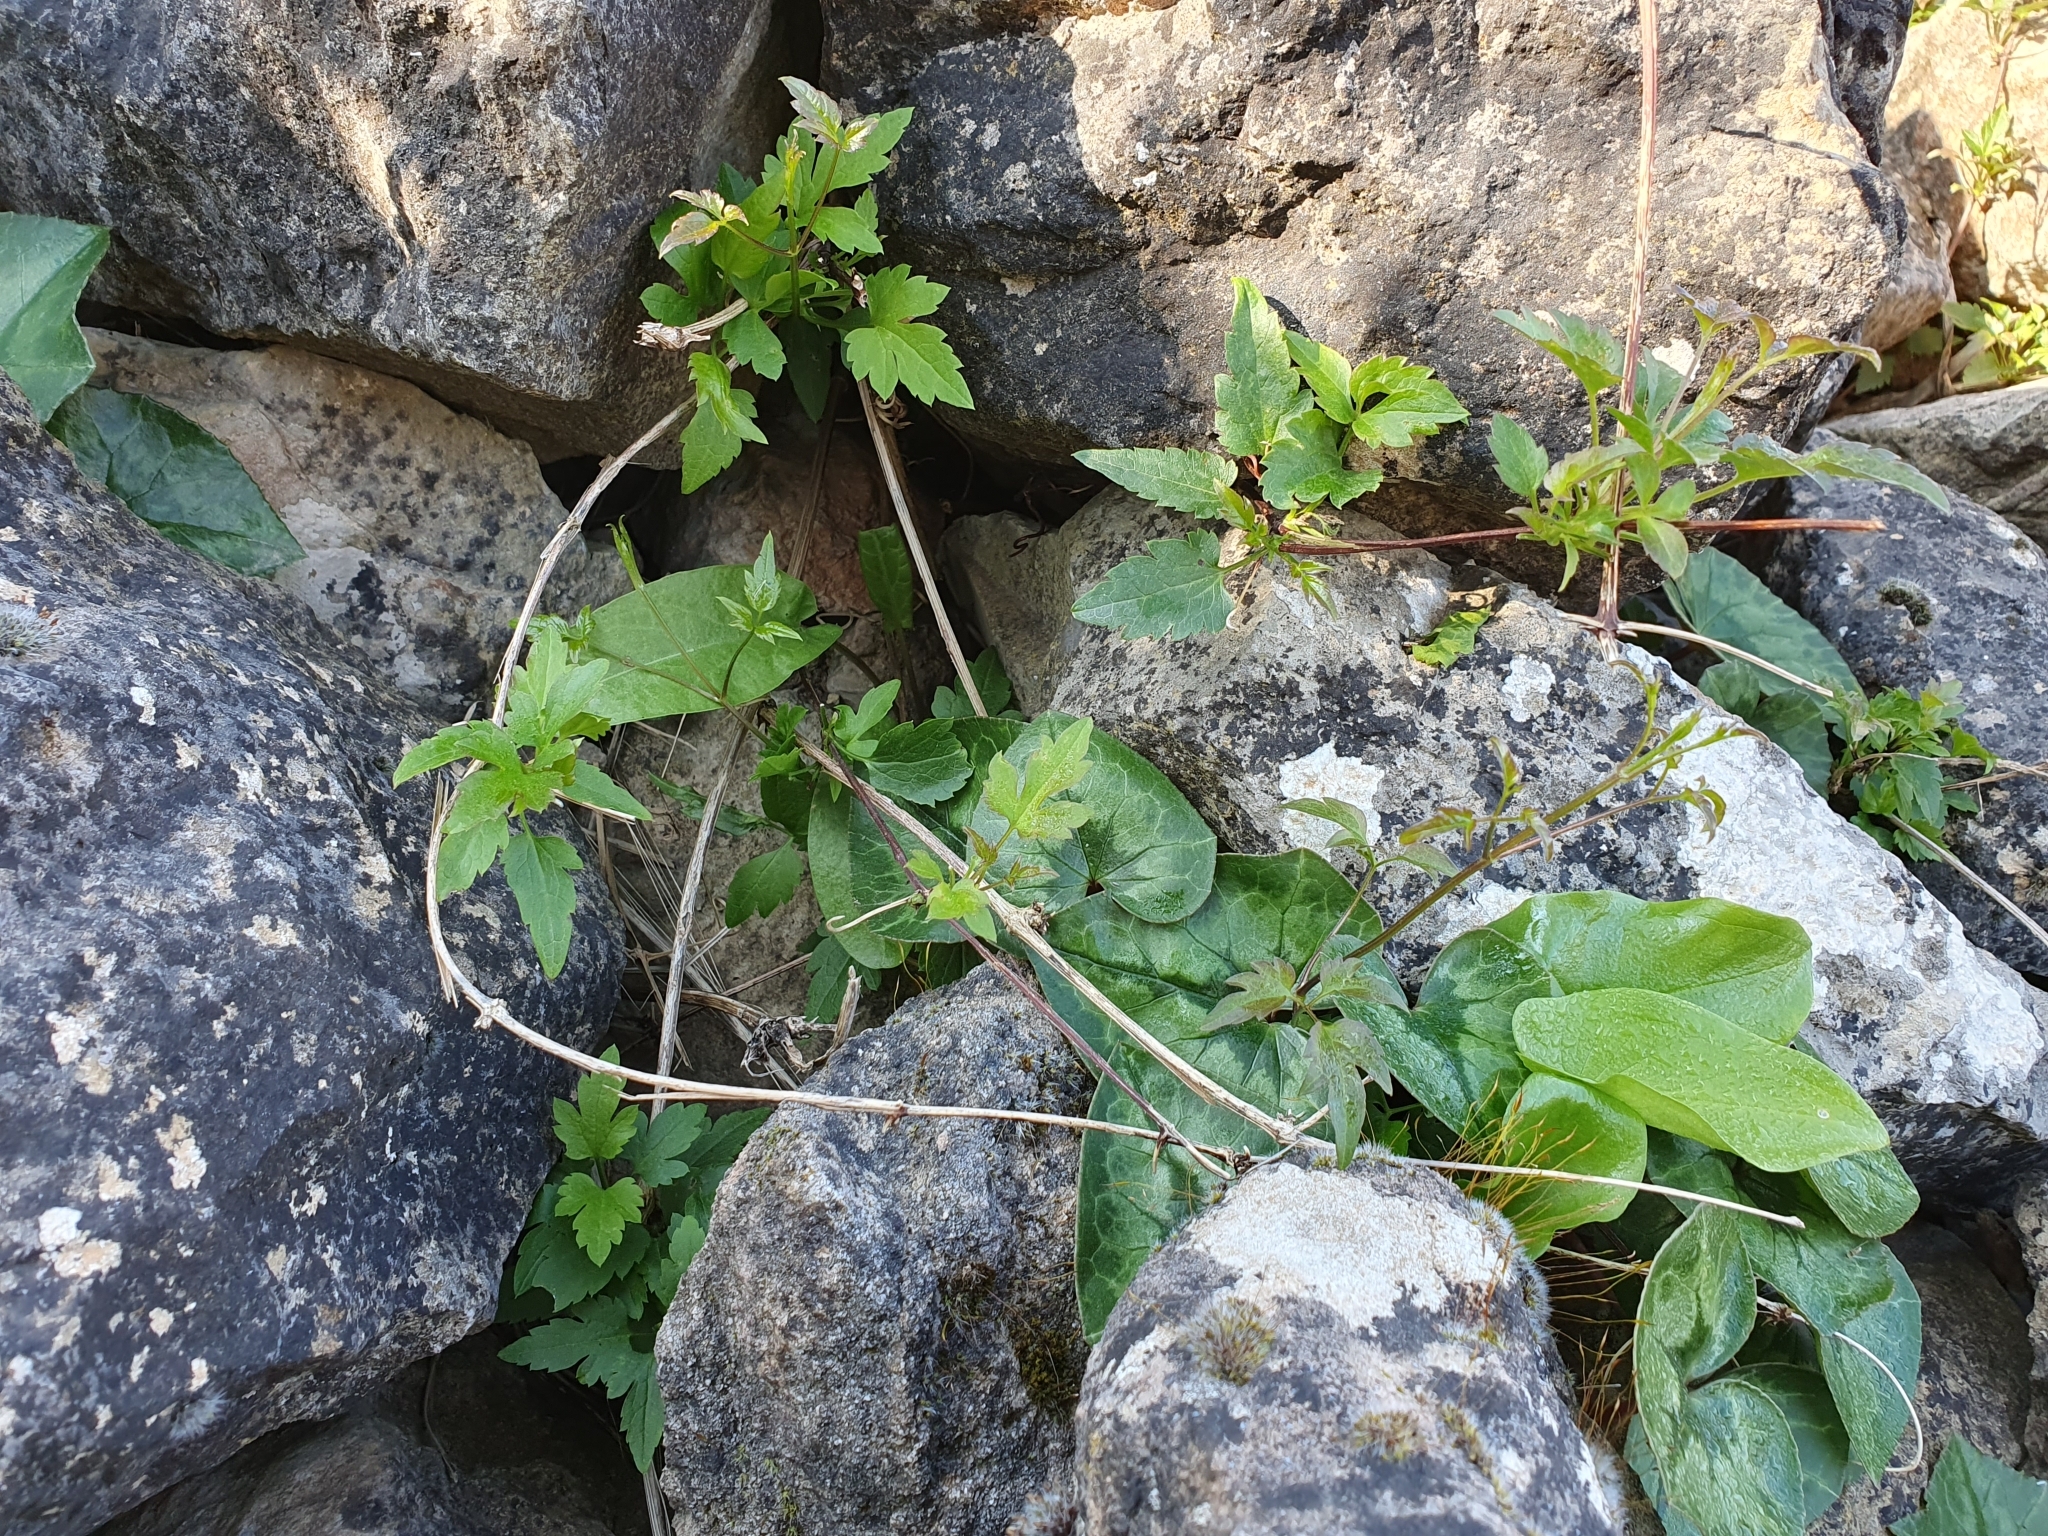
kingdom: Plantae
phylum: Tracheophyta
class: Magnoliopsida
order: Ranunculales
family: Ranunculaceae
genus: Clematis
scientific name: Clematis cirrhosa
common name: Early virgin's-bower
